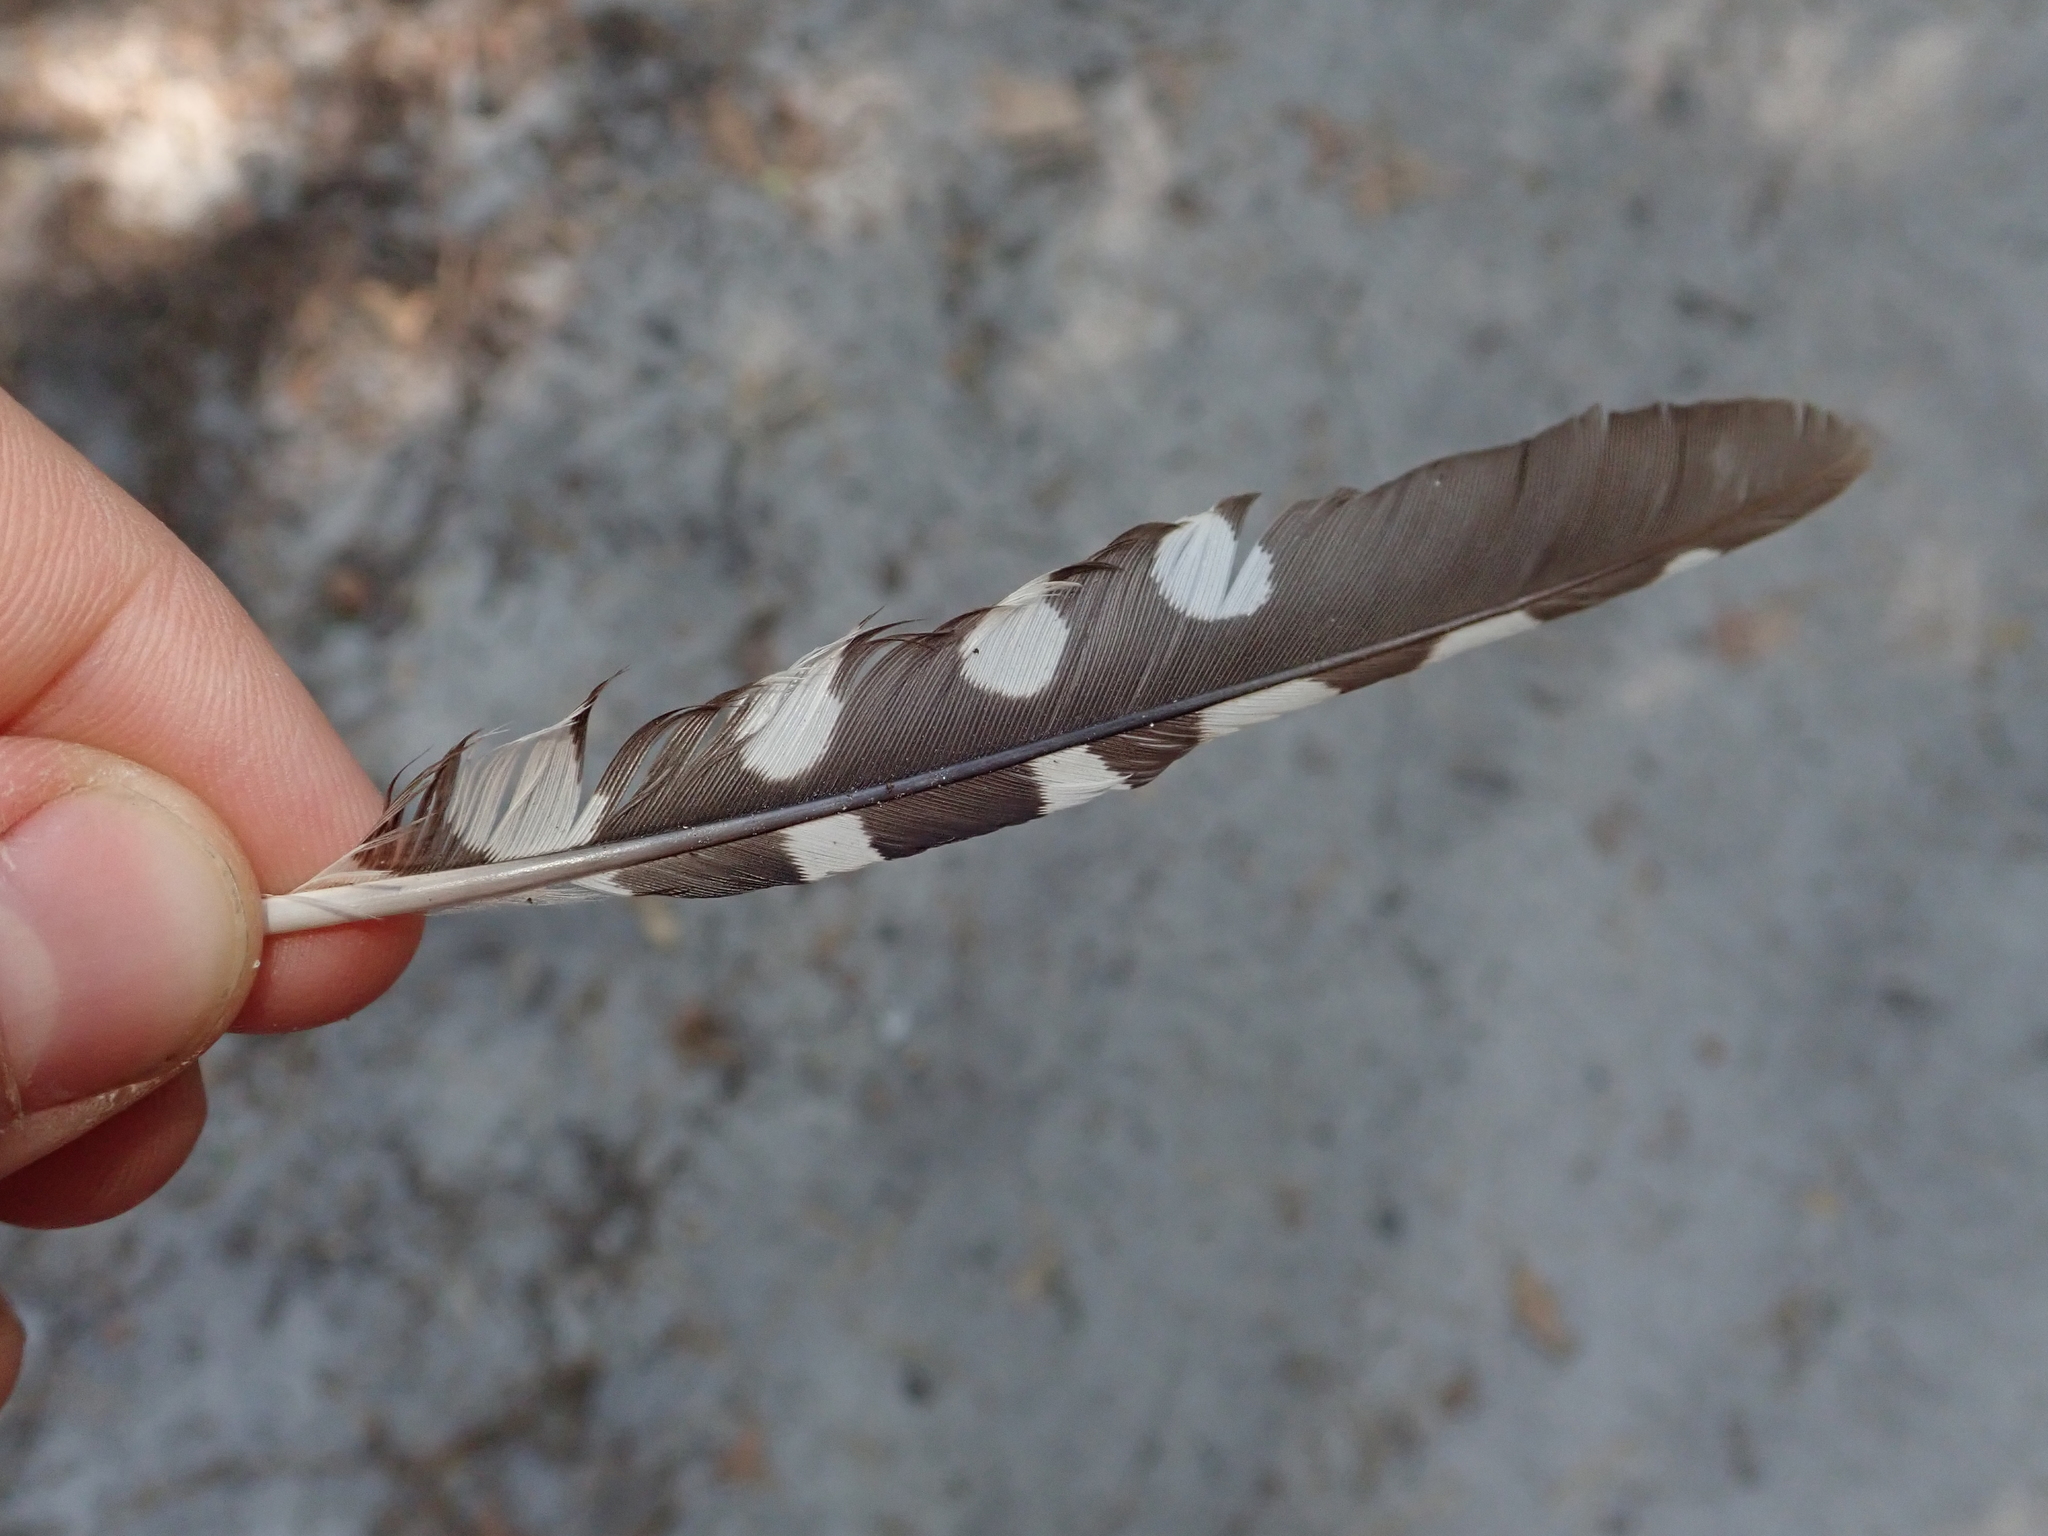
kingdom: Animalia
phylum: Chordata
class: Aves
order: Piciformes
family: Picidae
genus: Dendrocopos
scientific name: Dendrocopos major
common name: Great spotted woodpecker
